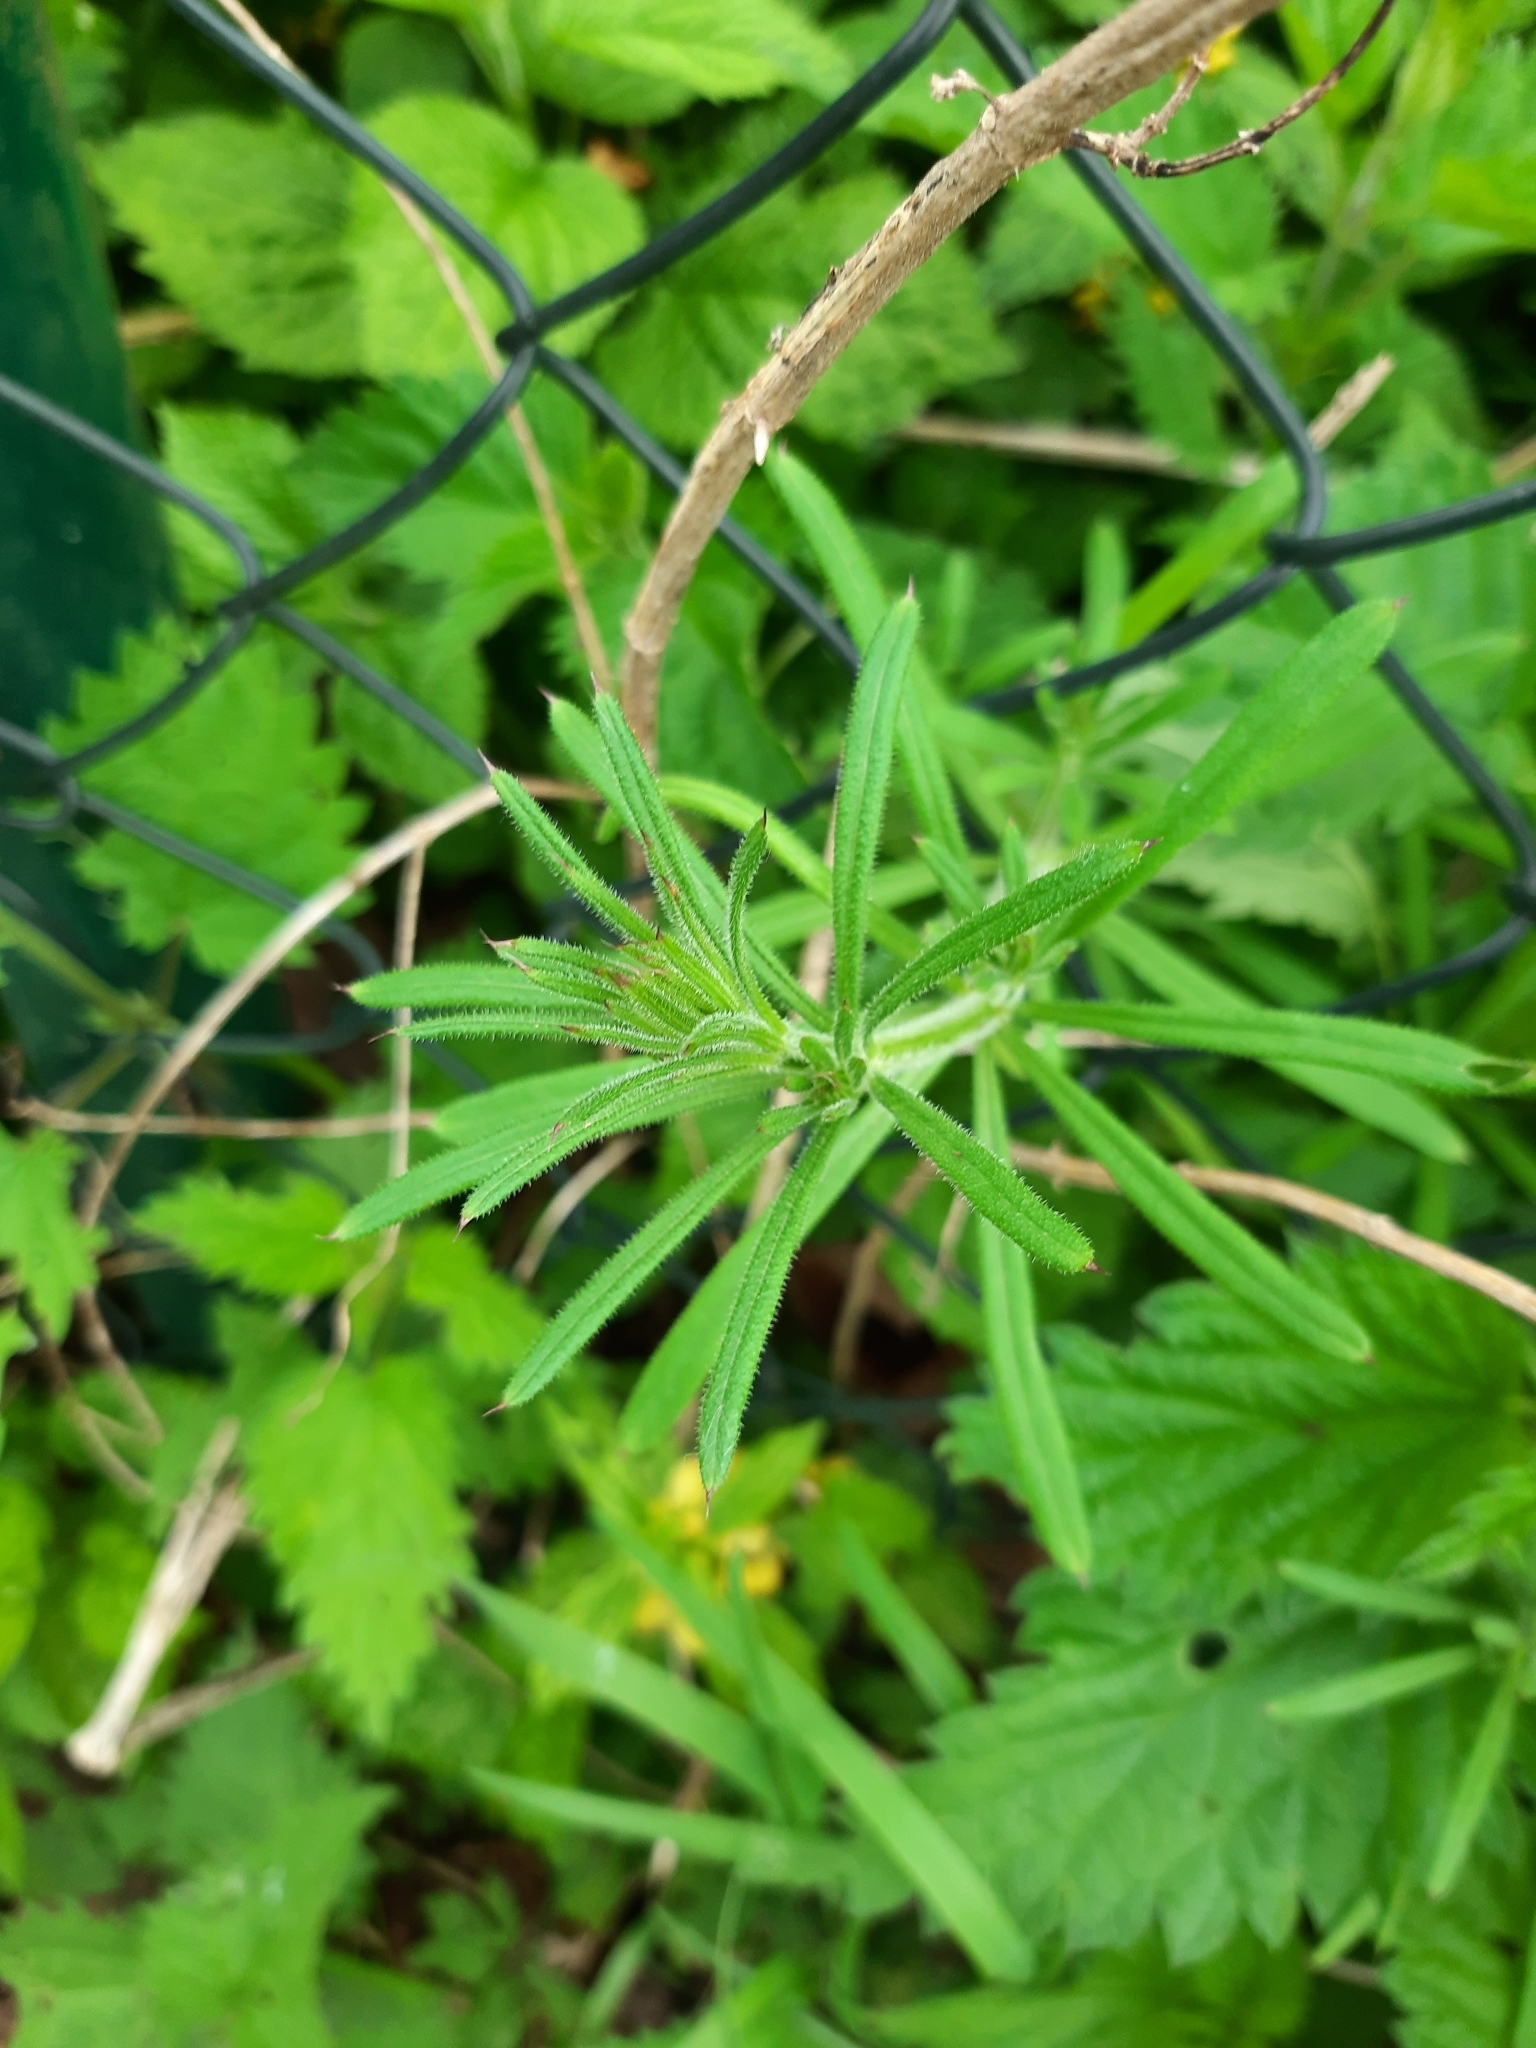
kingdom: Plantae
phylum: Tracheophyta
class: Magnoliopsida
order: Gentianales
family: Rubiaceae
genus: Galium
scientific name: Galium aparine
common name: Cleavers
